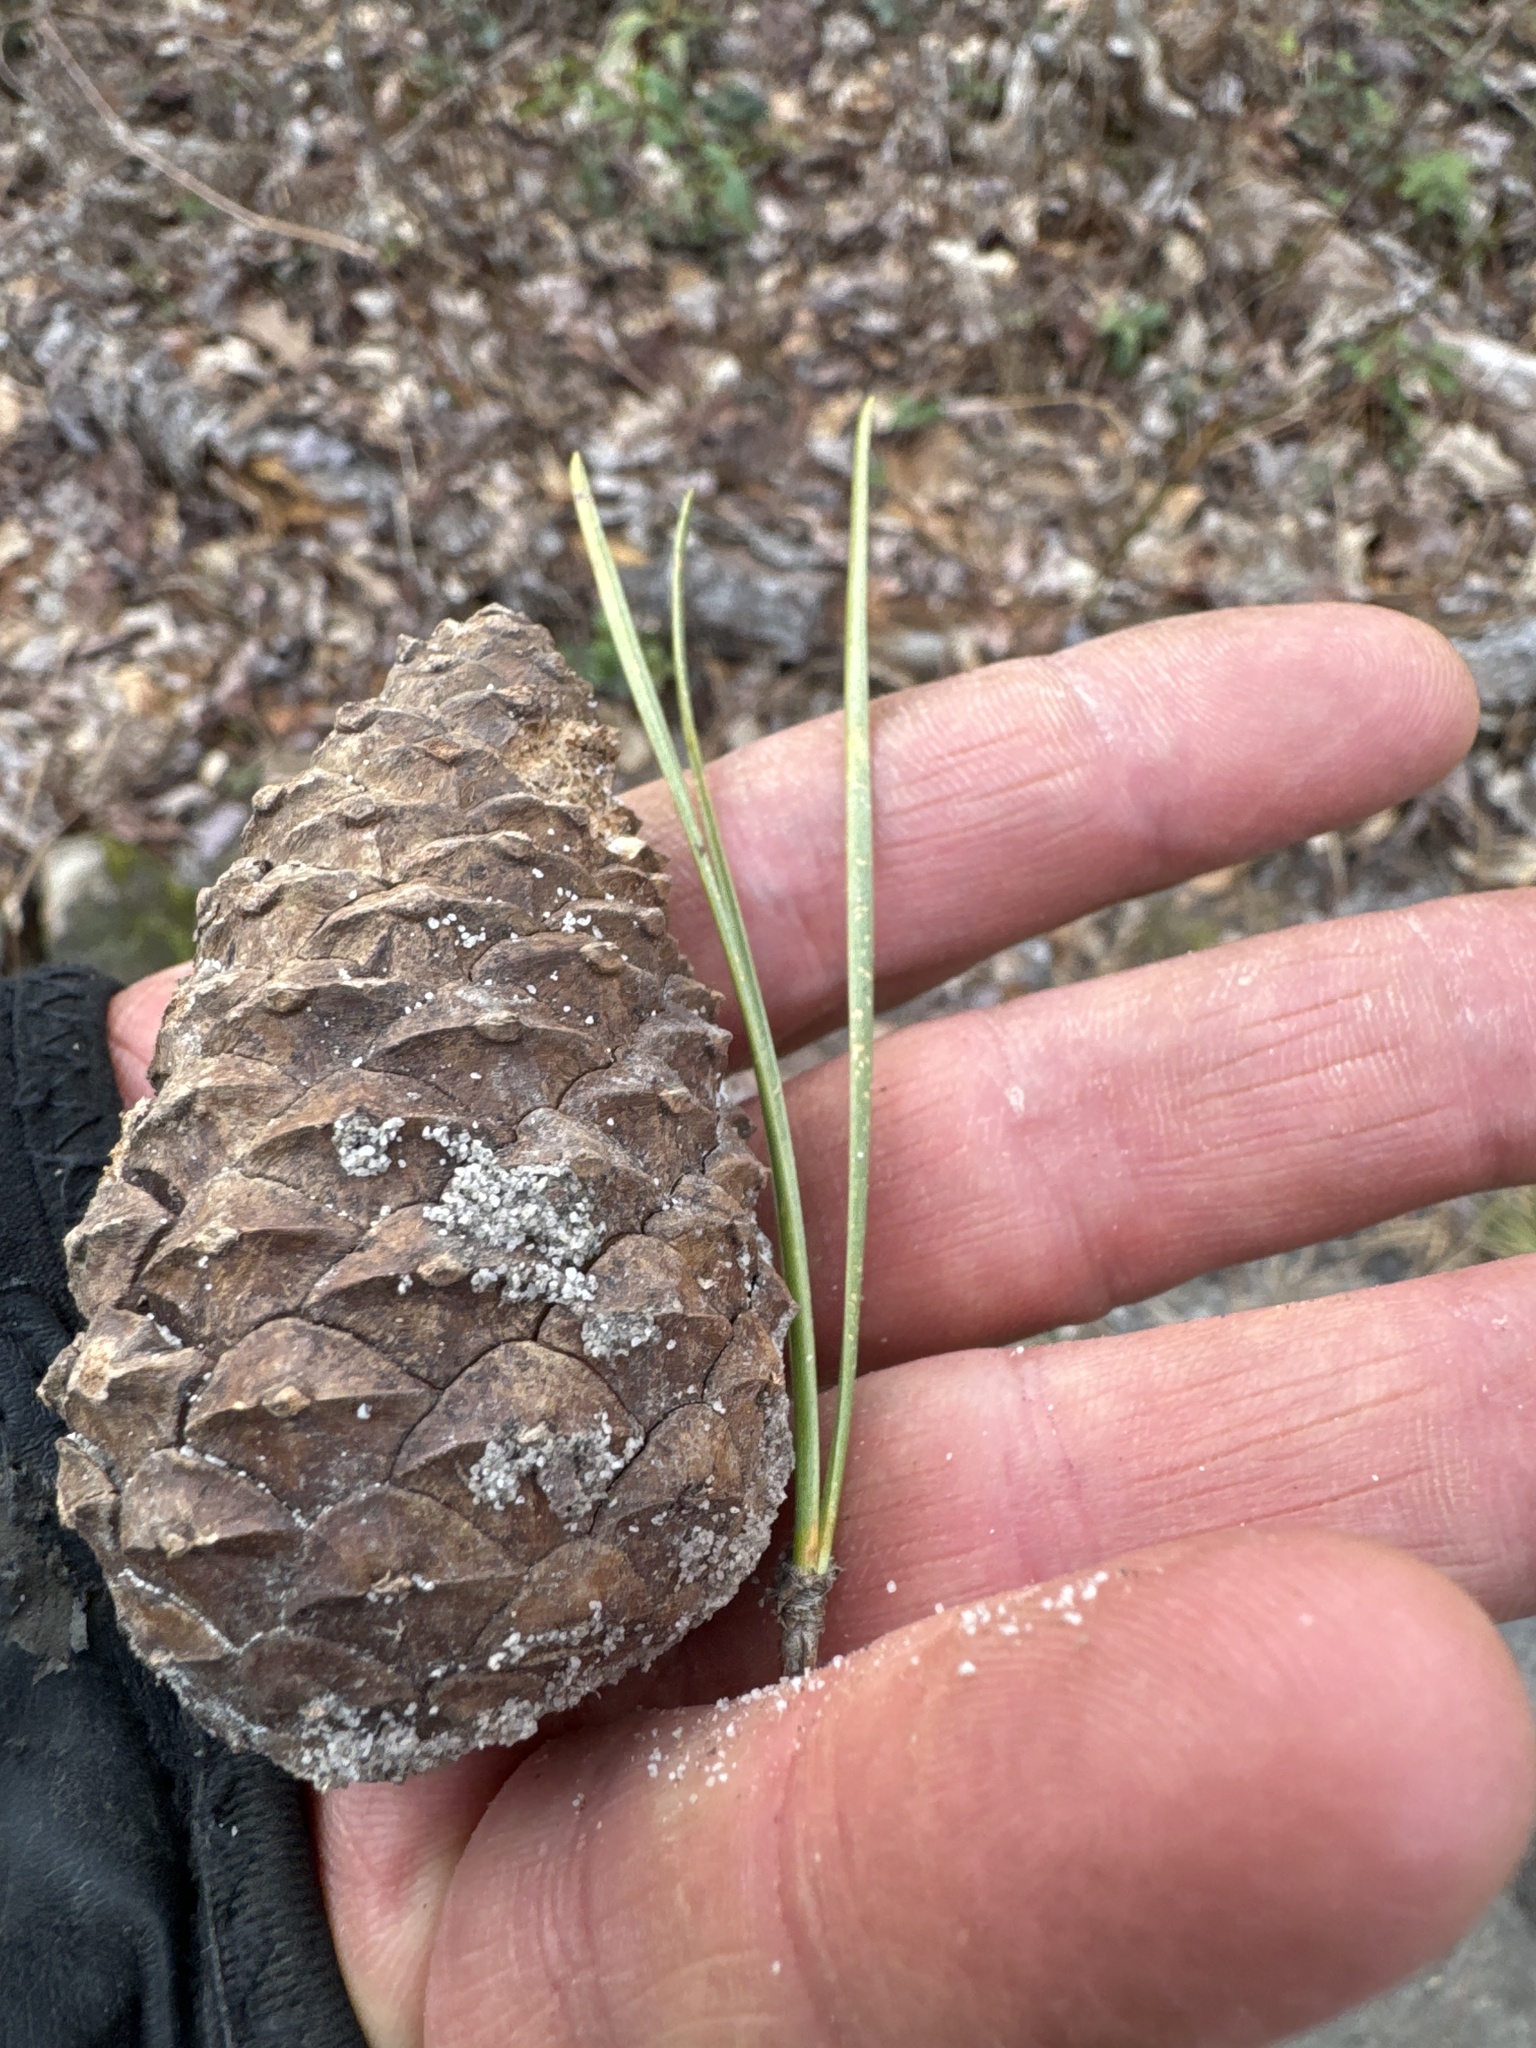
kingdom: Plantae
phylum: Tracheophyta
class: Pinopsida
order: Pinales
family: Pinaceae
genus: Pinus
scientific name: Pinus rigida
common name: Pitch pine
